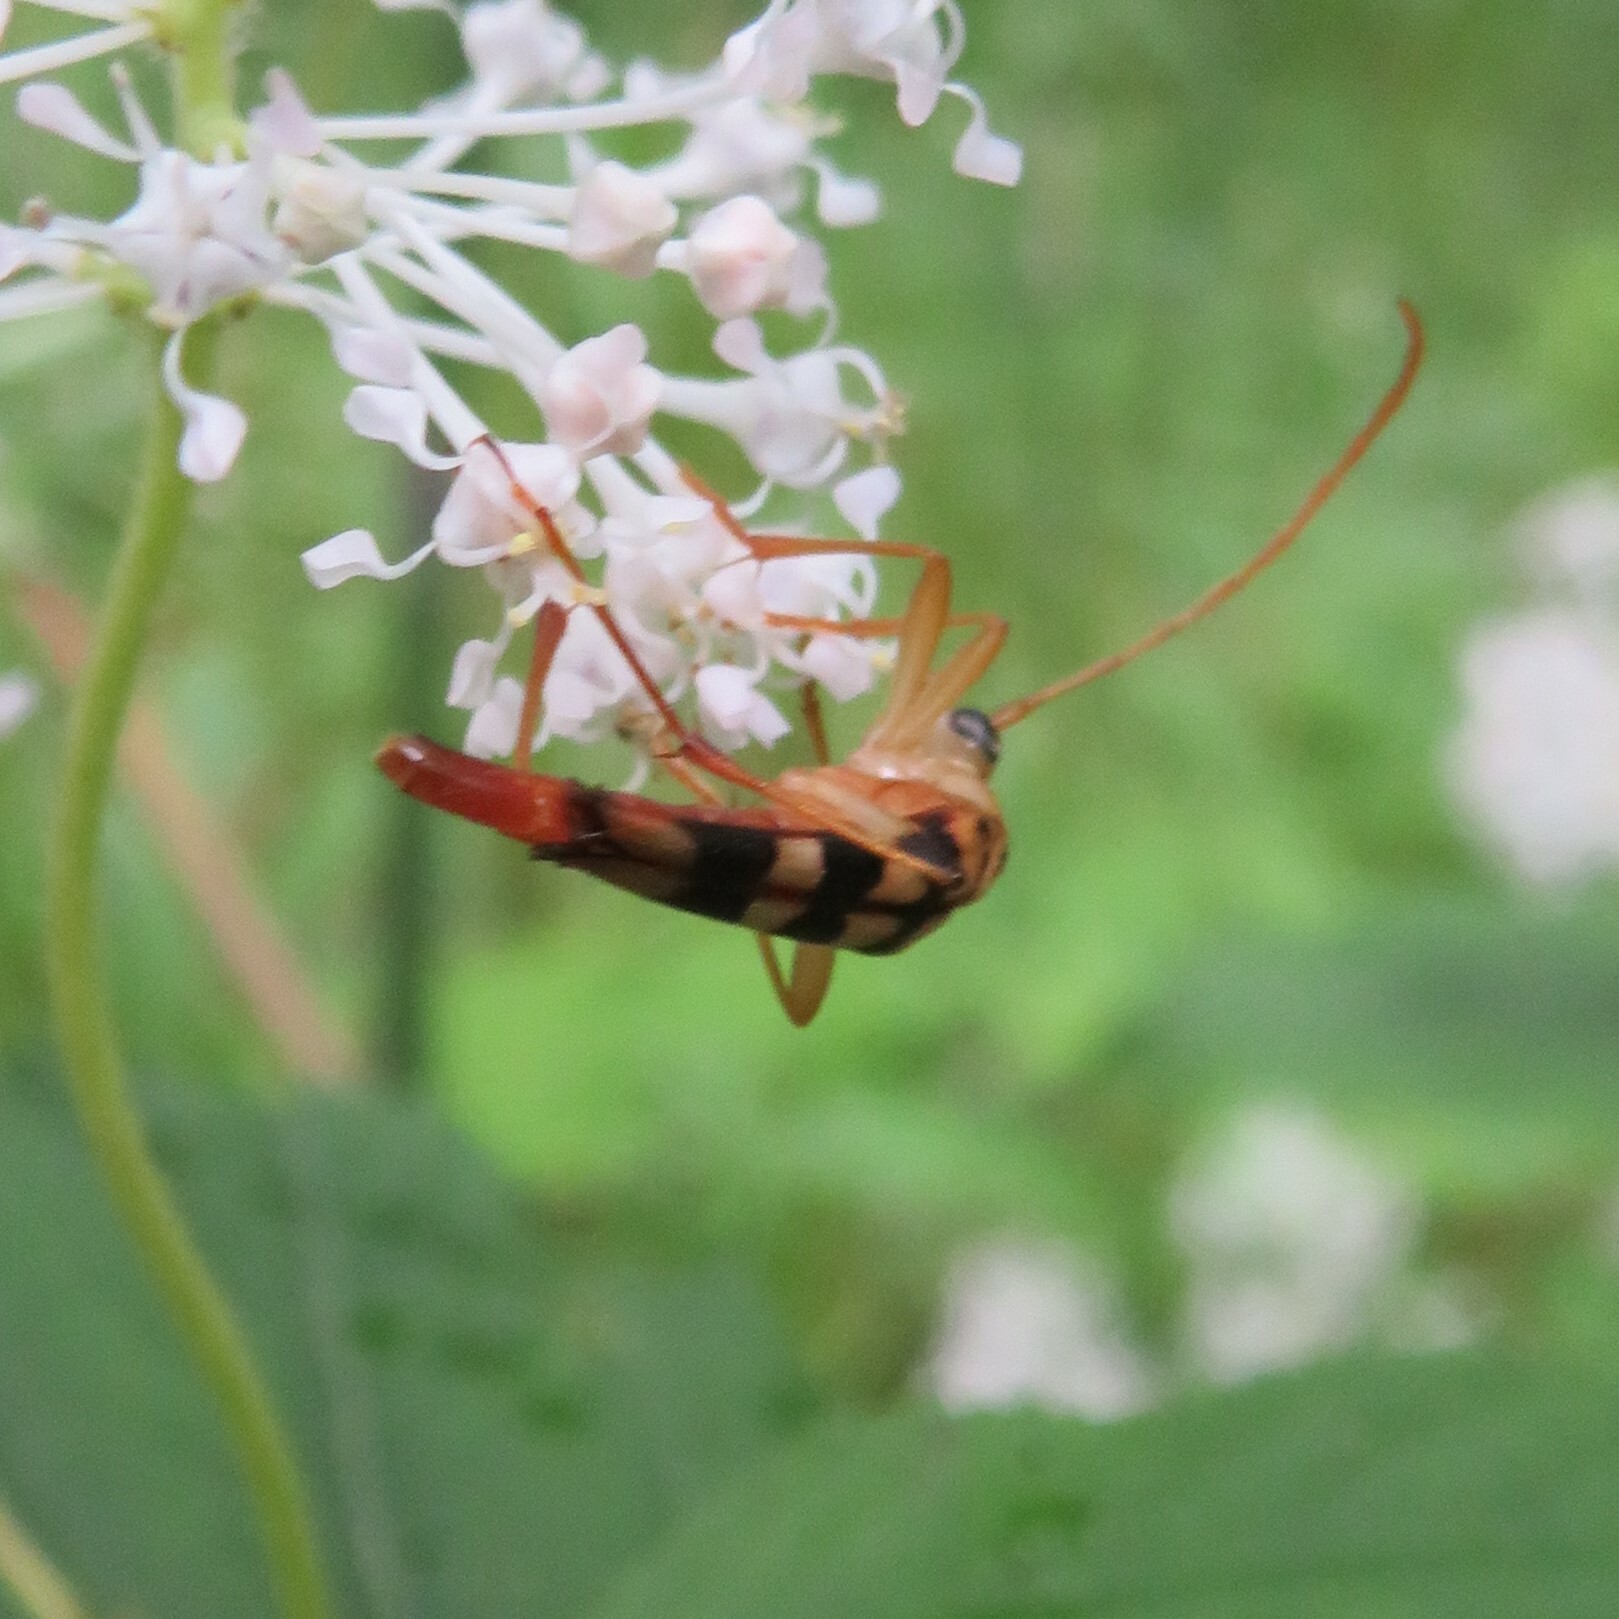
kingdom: Animalia
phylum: Arthropoda
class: Insecta
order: Coleoptera
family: Cerambycidae
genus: Strangalia
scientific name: Strangalia luteicornis
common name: Yellow-horned flower longhorn beetle
